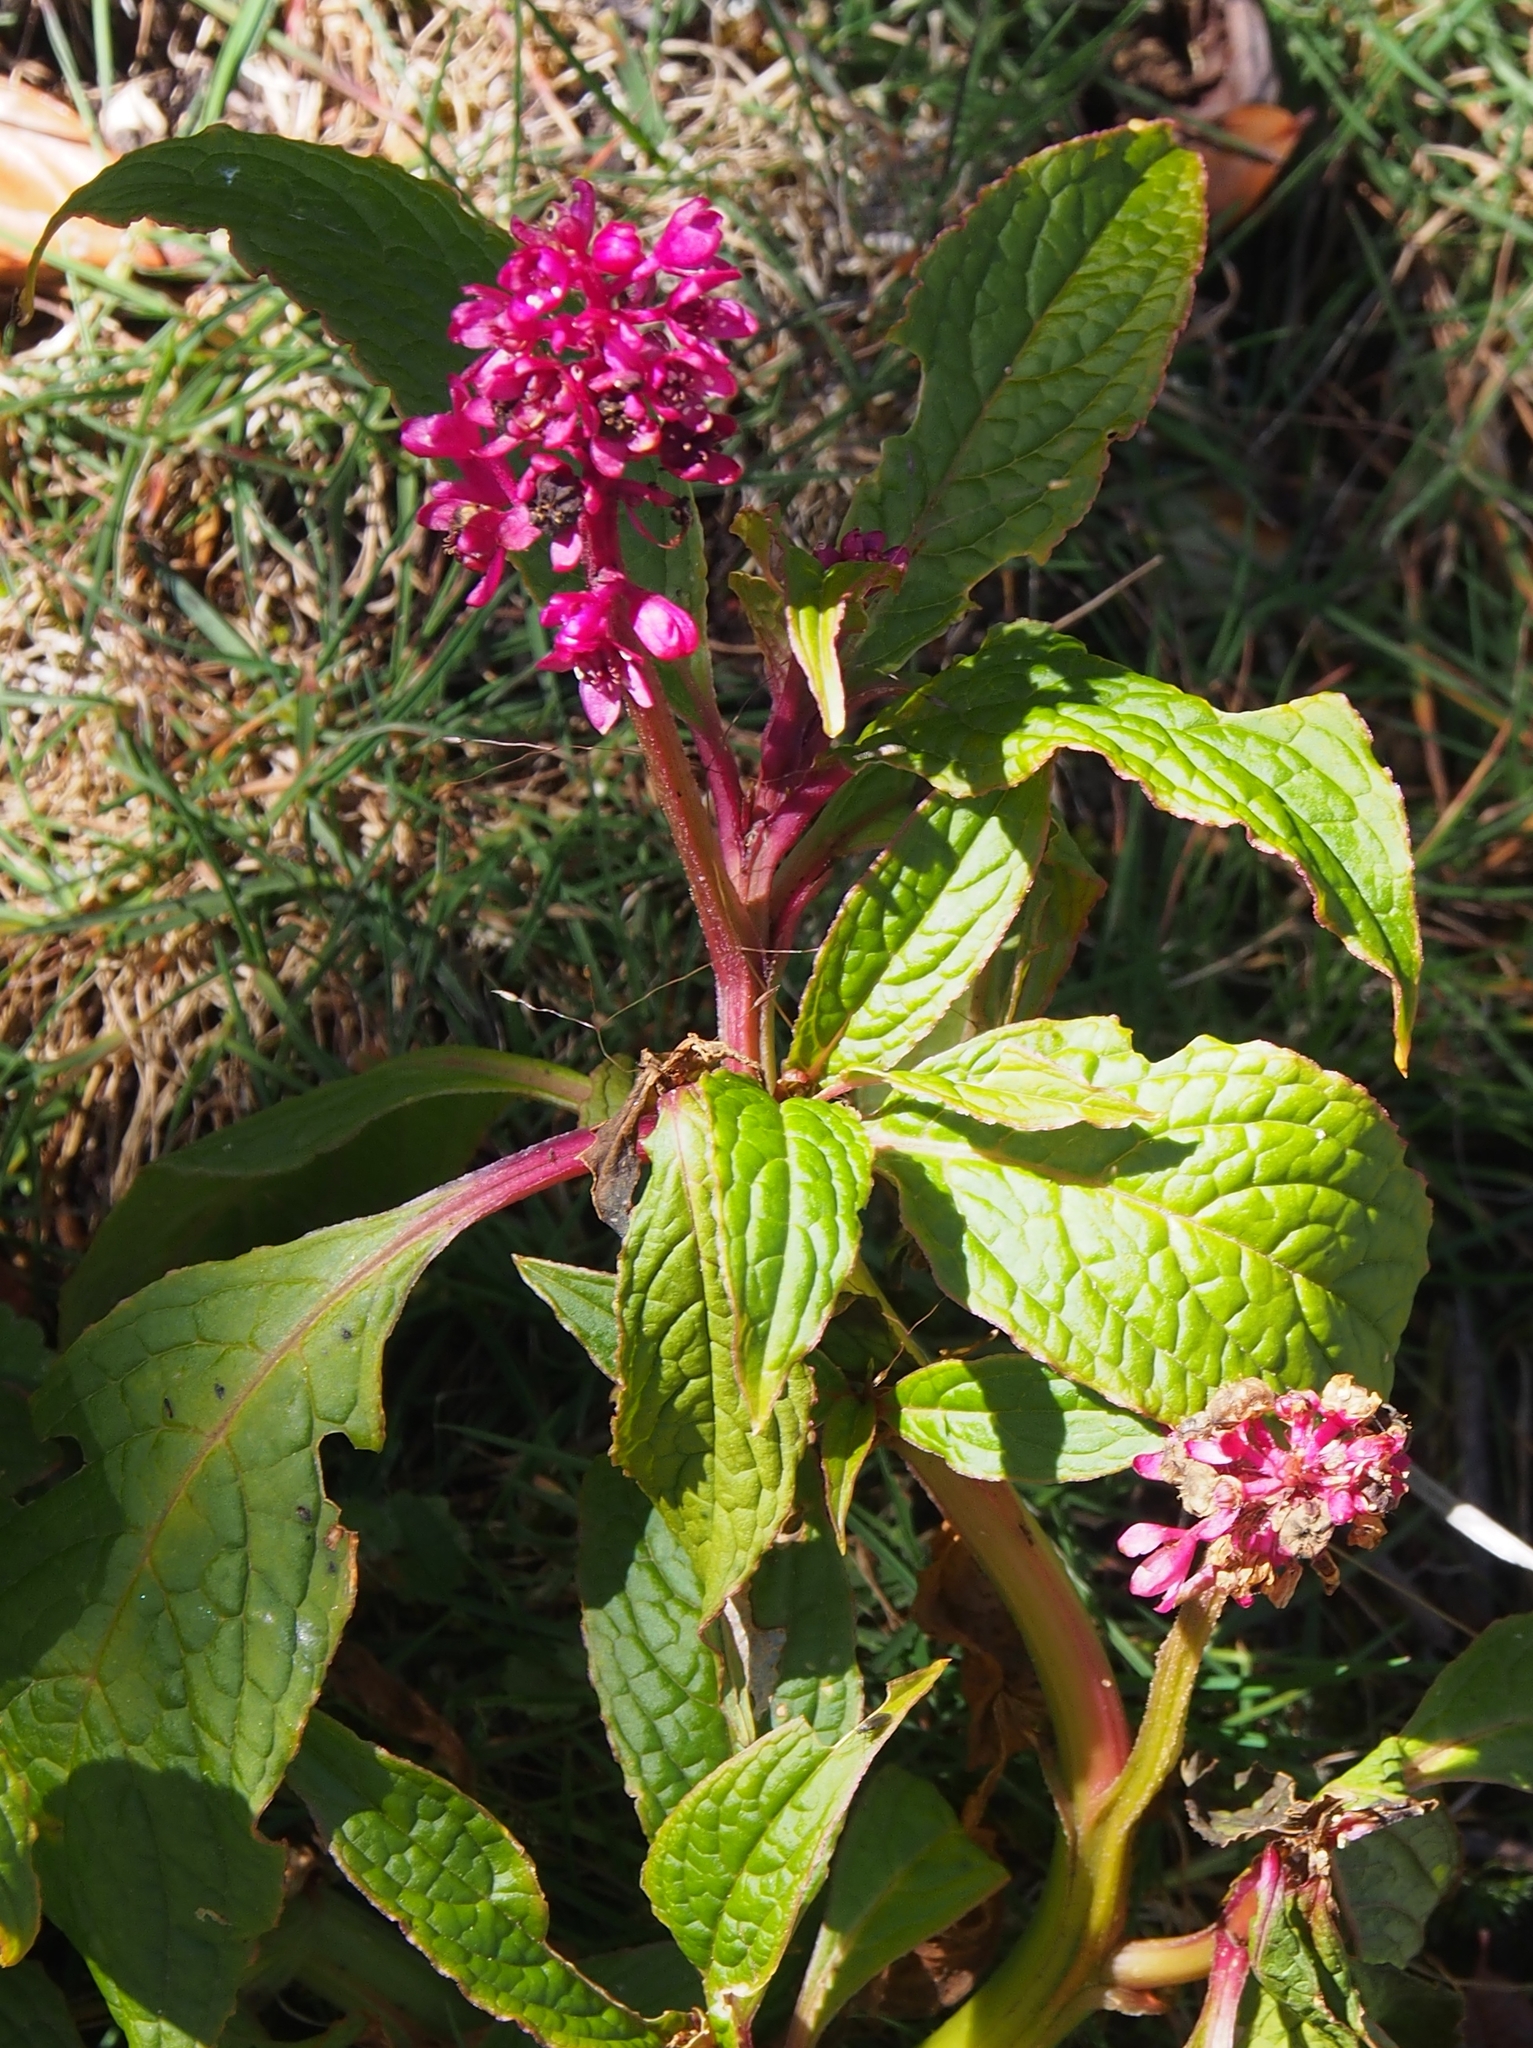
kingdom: Plantae
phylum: Tracheophyta
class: Magnoliopsida
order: Caryophyllales
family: Phytolaccaceae
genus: Phytolacca
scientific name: Phytolacca rugosa
